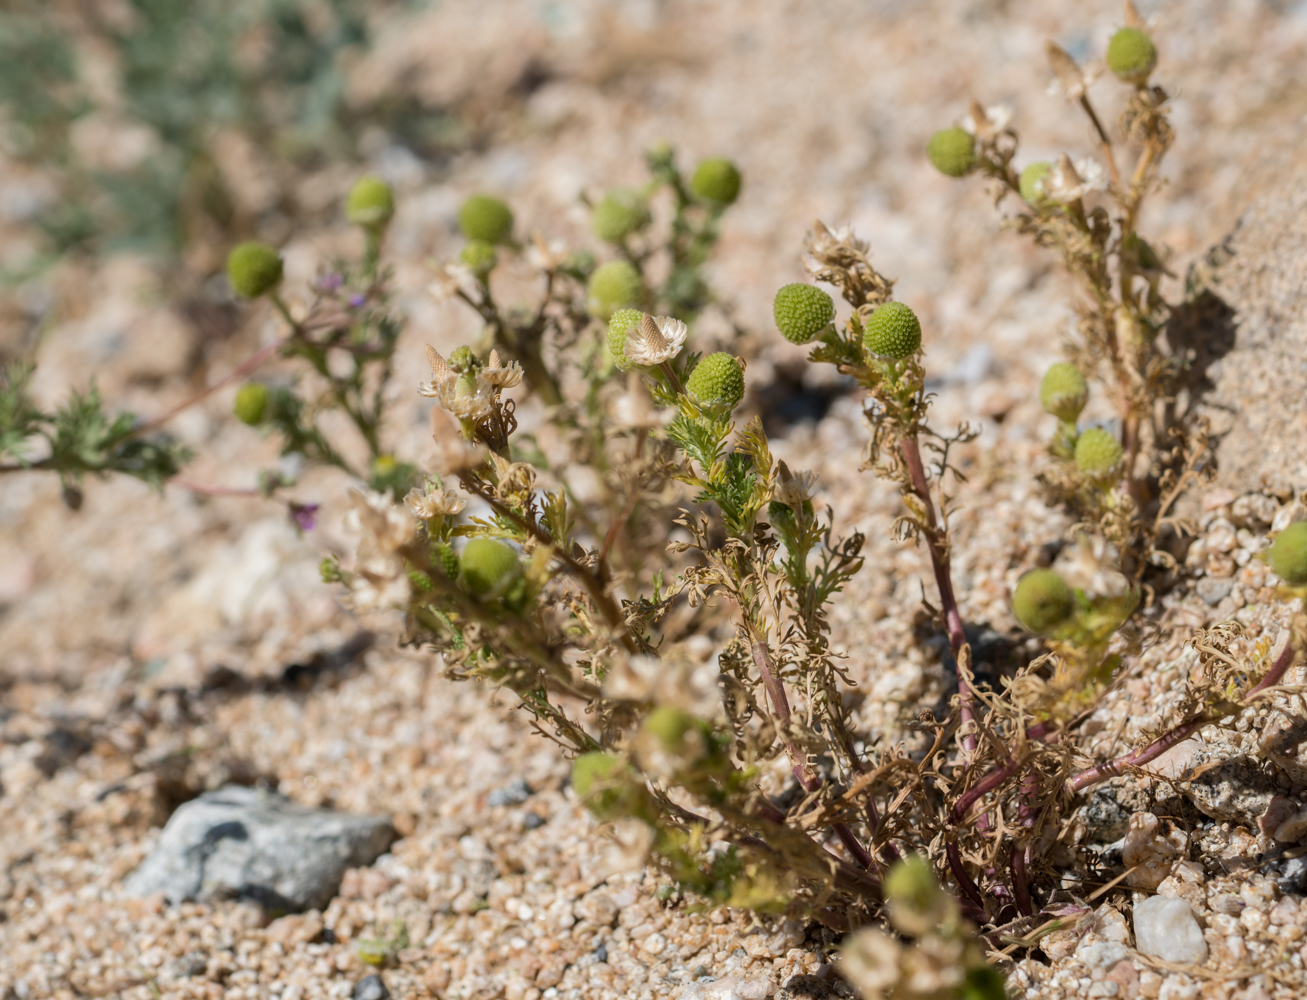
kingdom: Plantae
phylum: Tracheophyta
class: Magnoliopsida
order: Asterales
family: Asteraceae
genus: Matricaria
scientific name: Matricaria discoidea
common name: Disc mayweed
